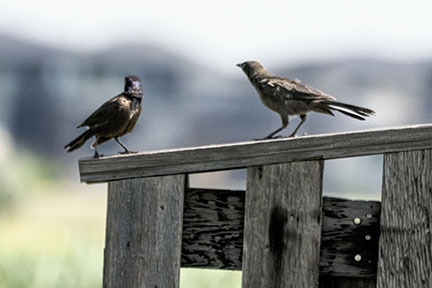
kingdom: Animalia
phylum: Chordata
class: Aves
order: Passeriformes
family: Icteridae
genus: Quiscalus
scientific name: Quiscalus quiscula
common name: Common grackle
